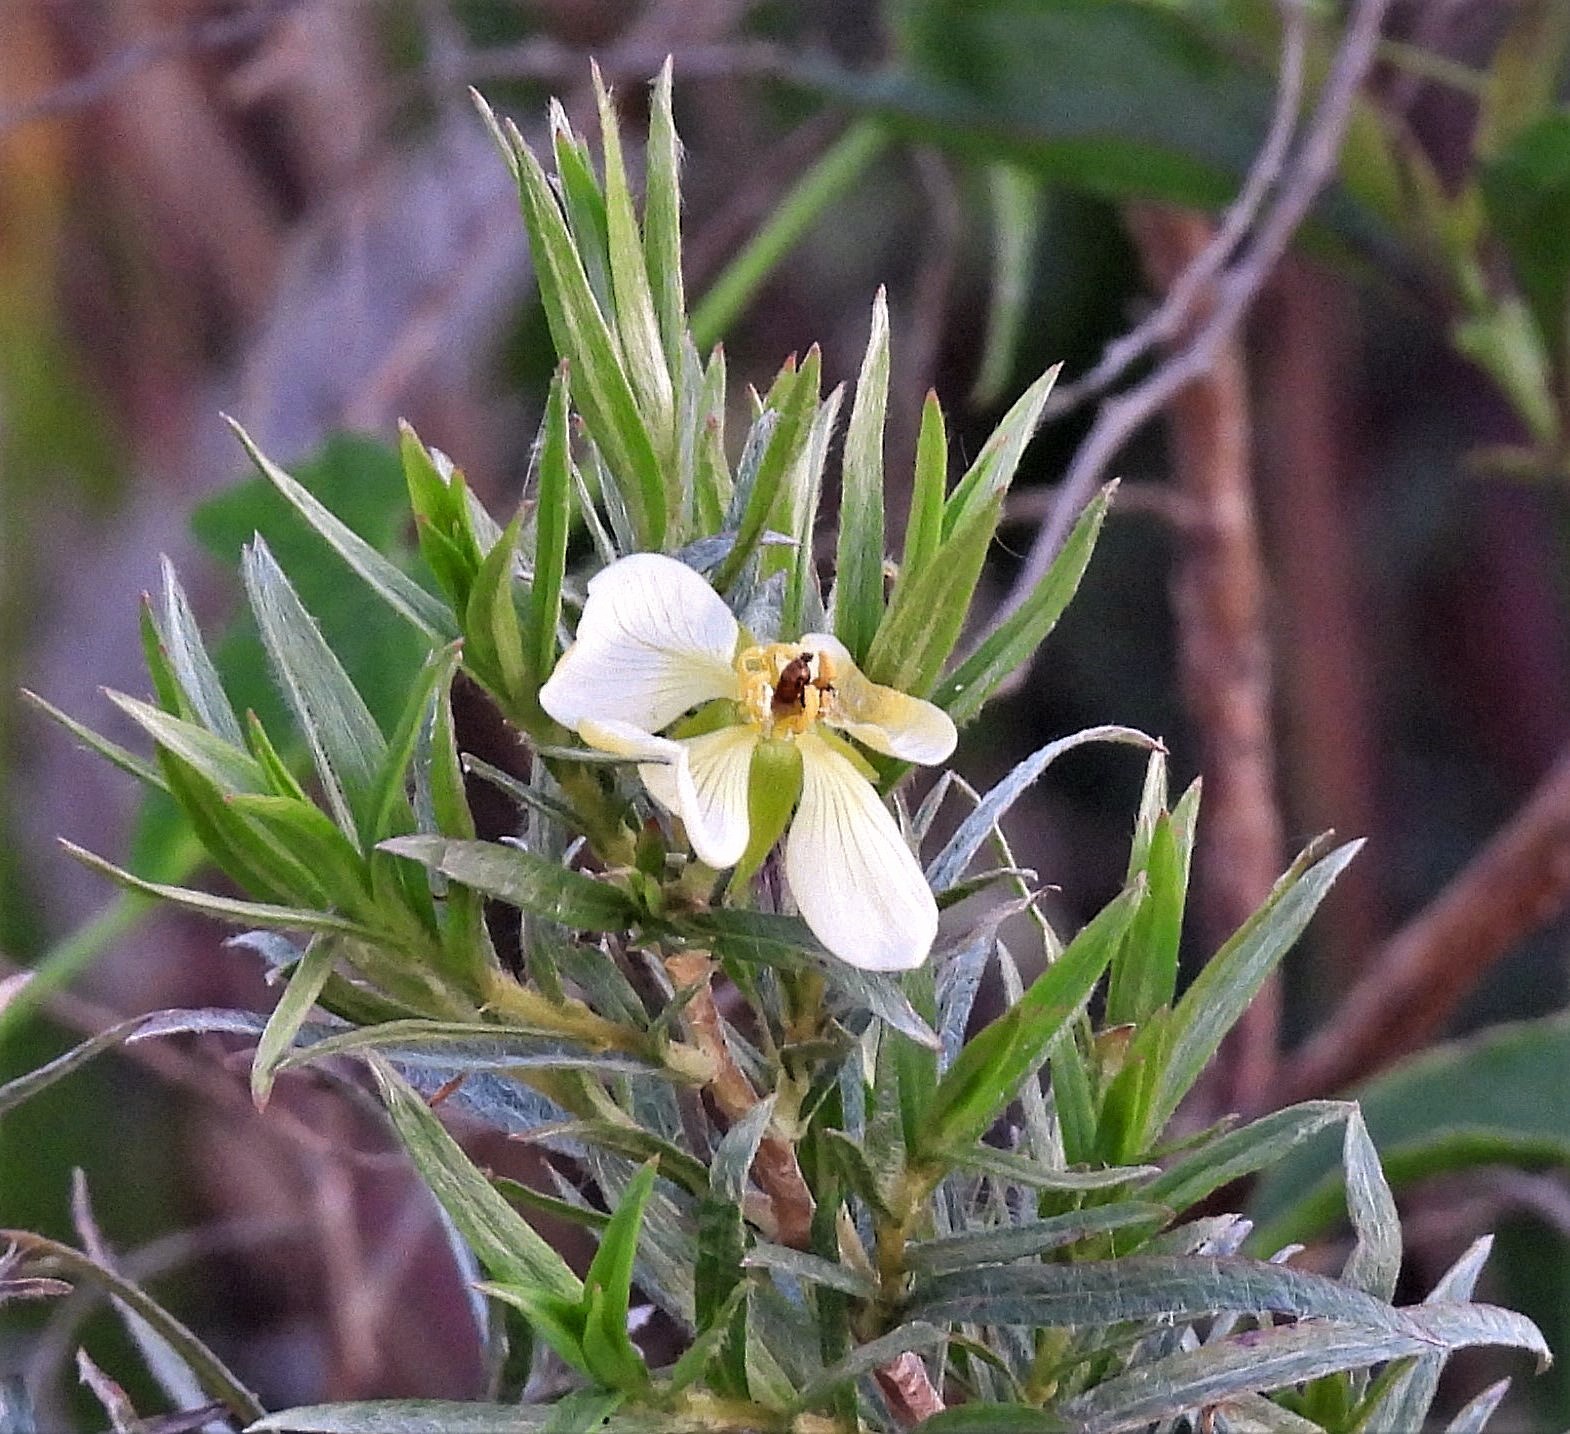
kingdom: Plantae
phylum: Tracheophyta
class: Magnoliopsida
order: Myrtales
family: Onagraceae
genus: Ludwigia
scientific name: Ludwigia sericea
